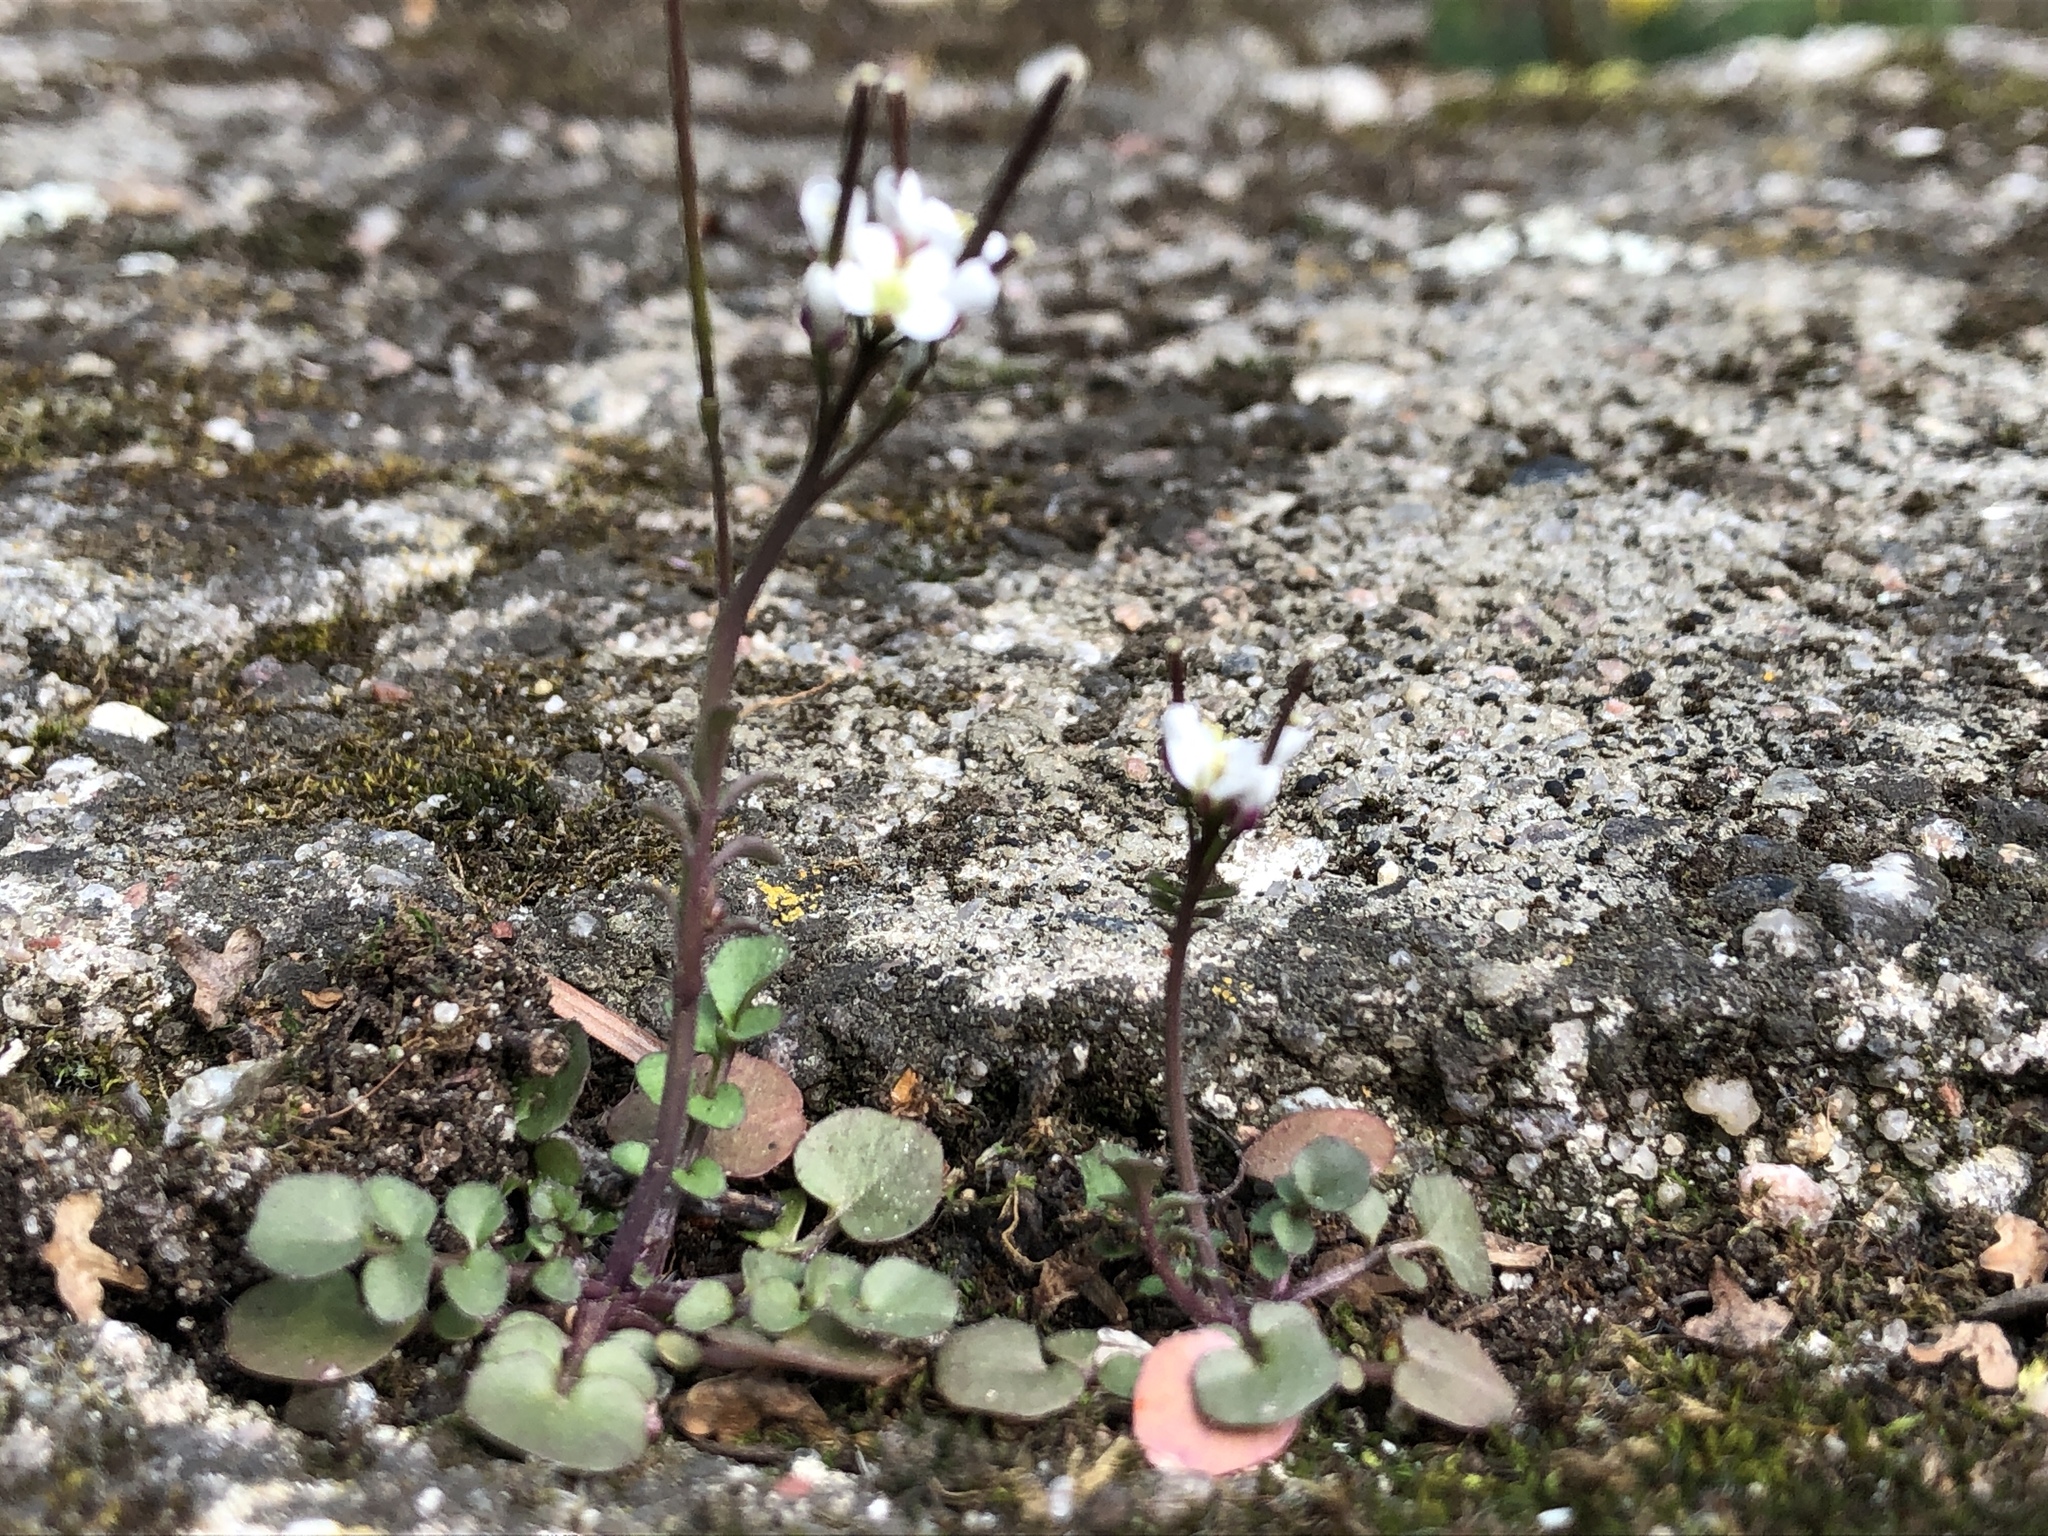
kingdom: Plantae
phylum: Tracheophyta
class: Magnoliopsida
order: Brassicales
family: Brassicaceae
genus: Cardamine
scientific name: Cardamine hirsuta
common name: Hairy bittercress
